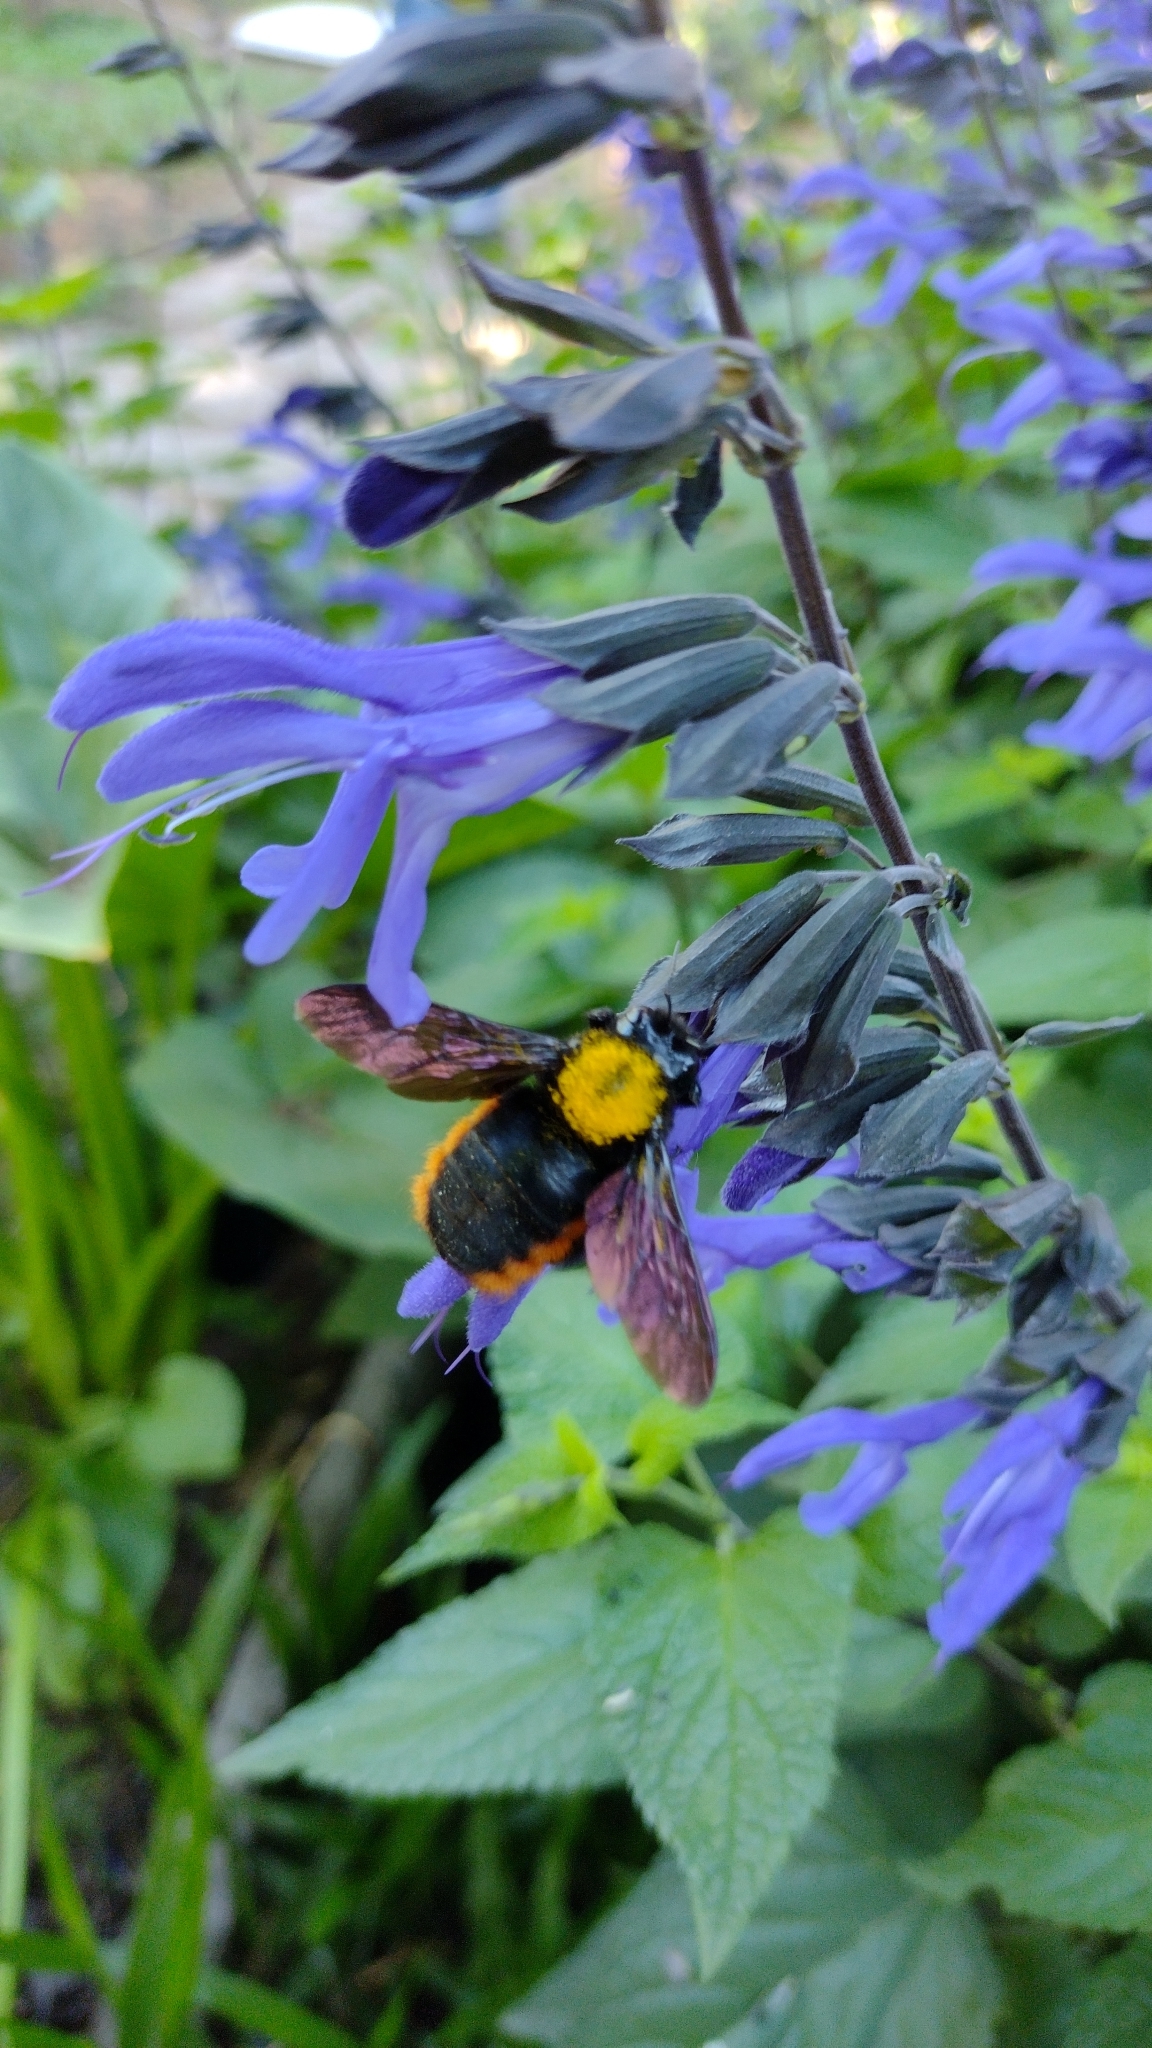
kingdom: Animalia
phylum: Arthropoda
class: Insecta
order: Hymenoptera
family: Apidae
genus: Xylocopa
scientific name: Xylocopa augusti
